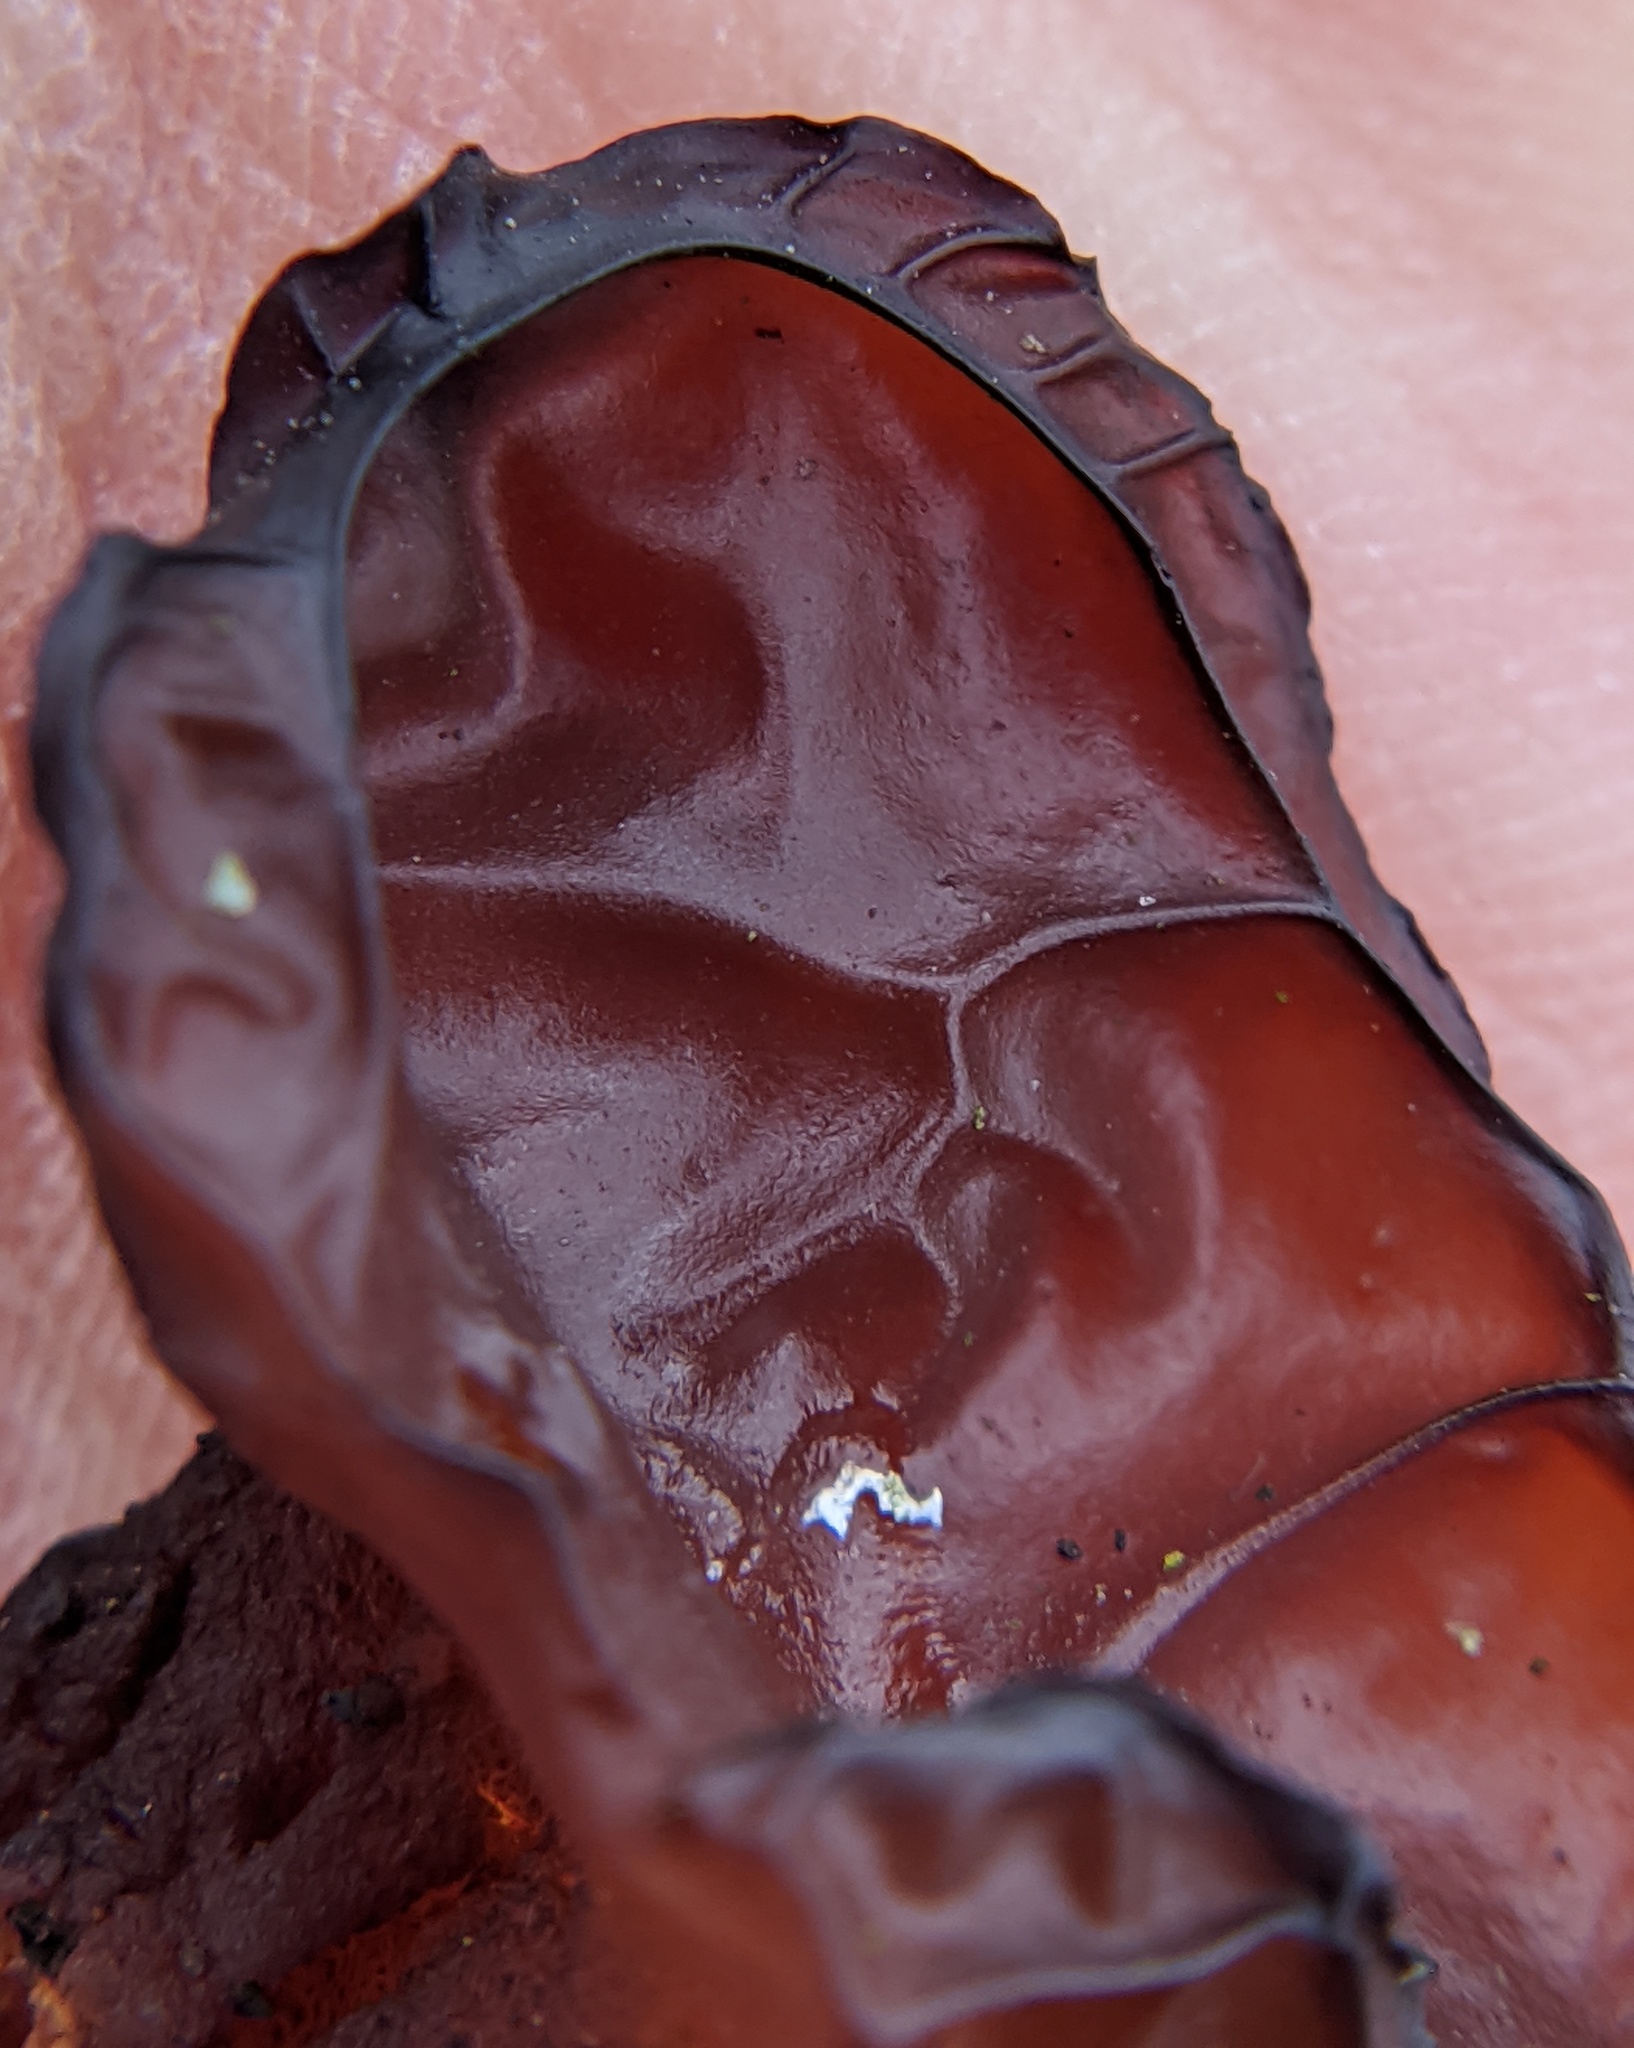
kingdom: Fungi
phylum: Basidiomycota
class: Agaricomycetes
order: Auriculariales
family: Auriculariaceae
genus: Exidia
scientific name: Exidia
